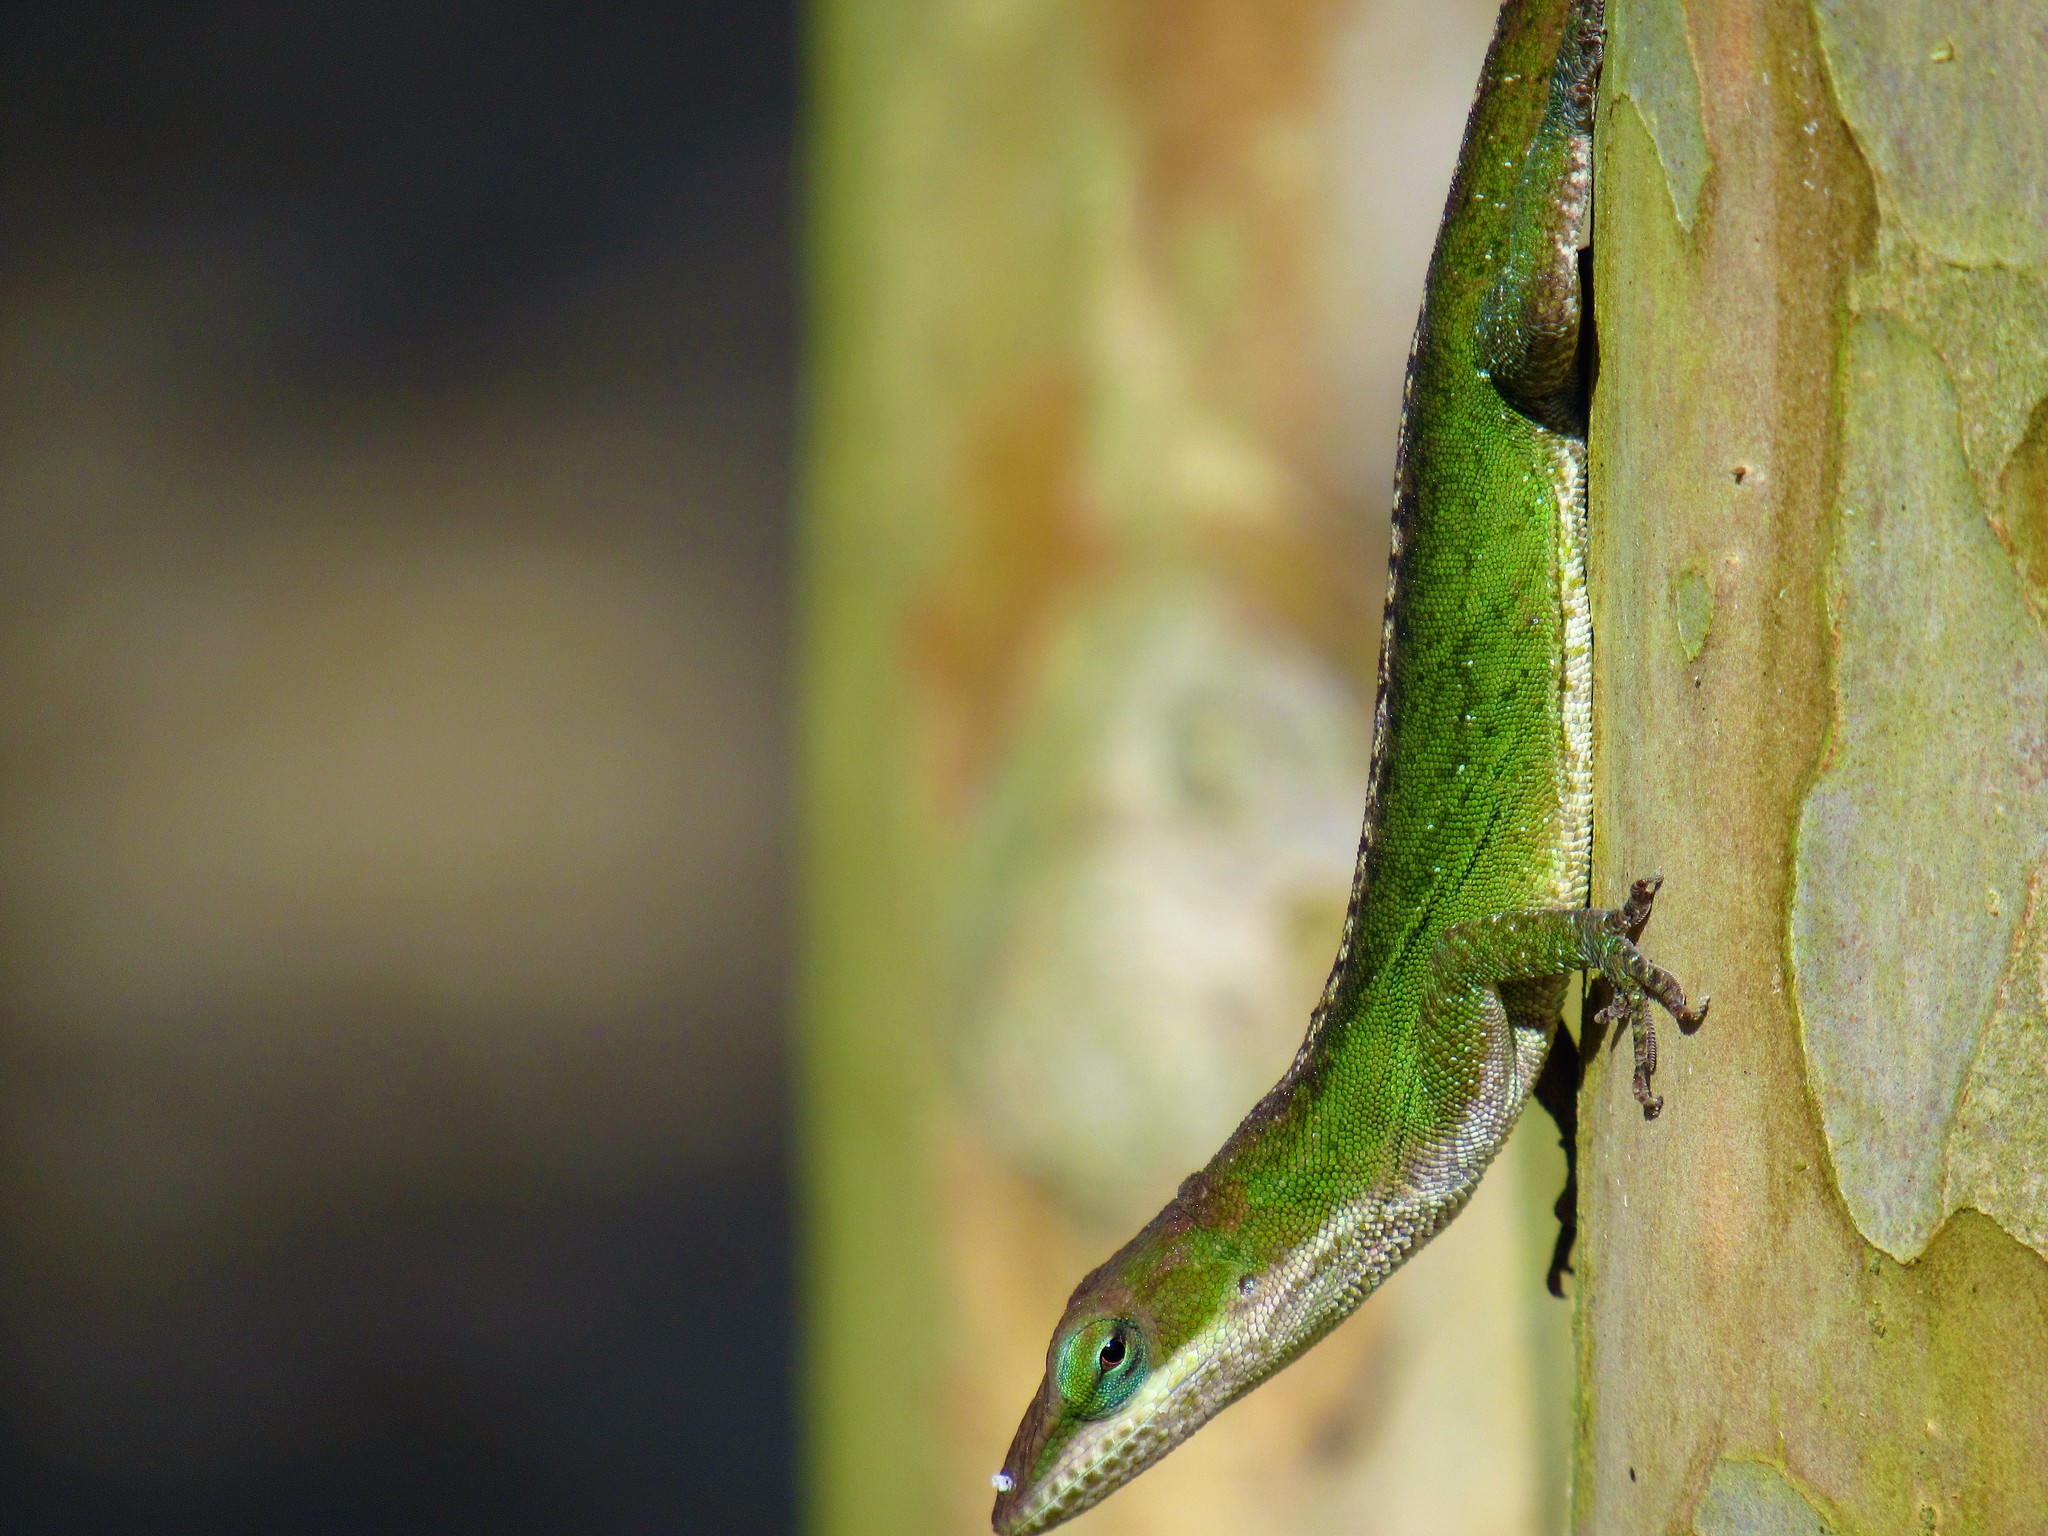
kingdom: Animalia
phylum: Chordata
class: Squamata
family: Dactyloidae
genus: Anolis
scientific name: Anolis carolinensis
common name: Green anole
